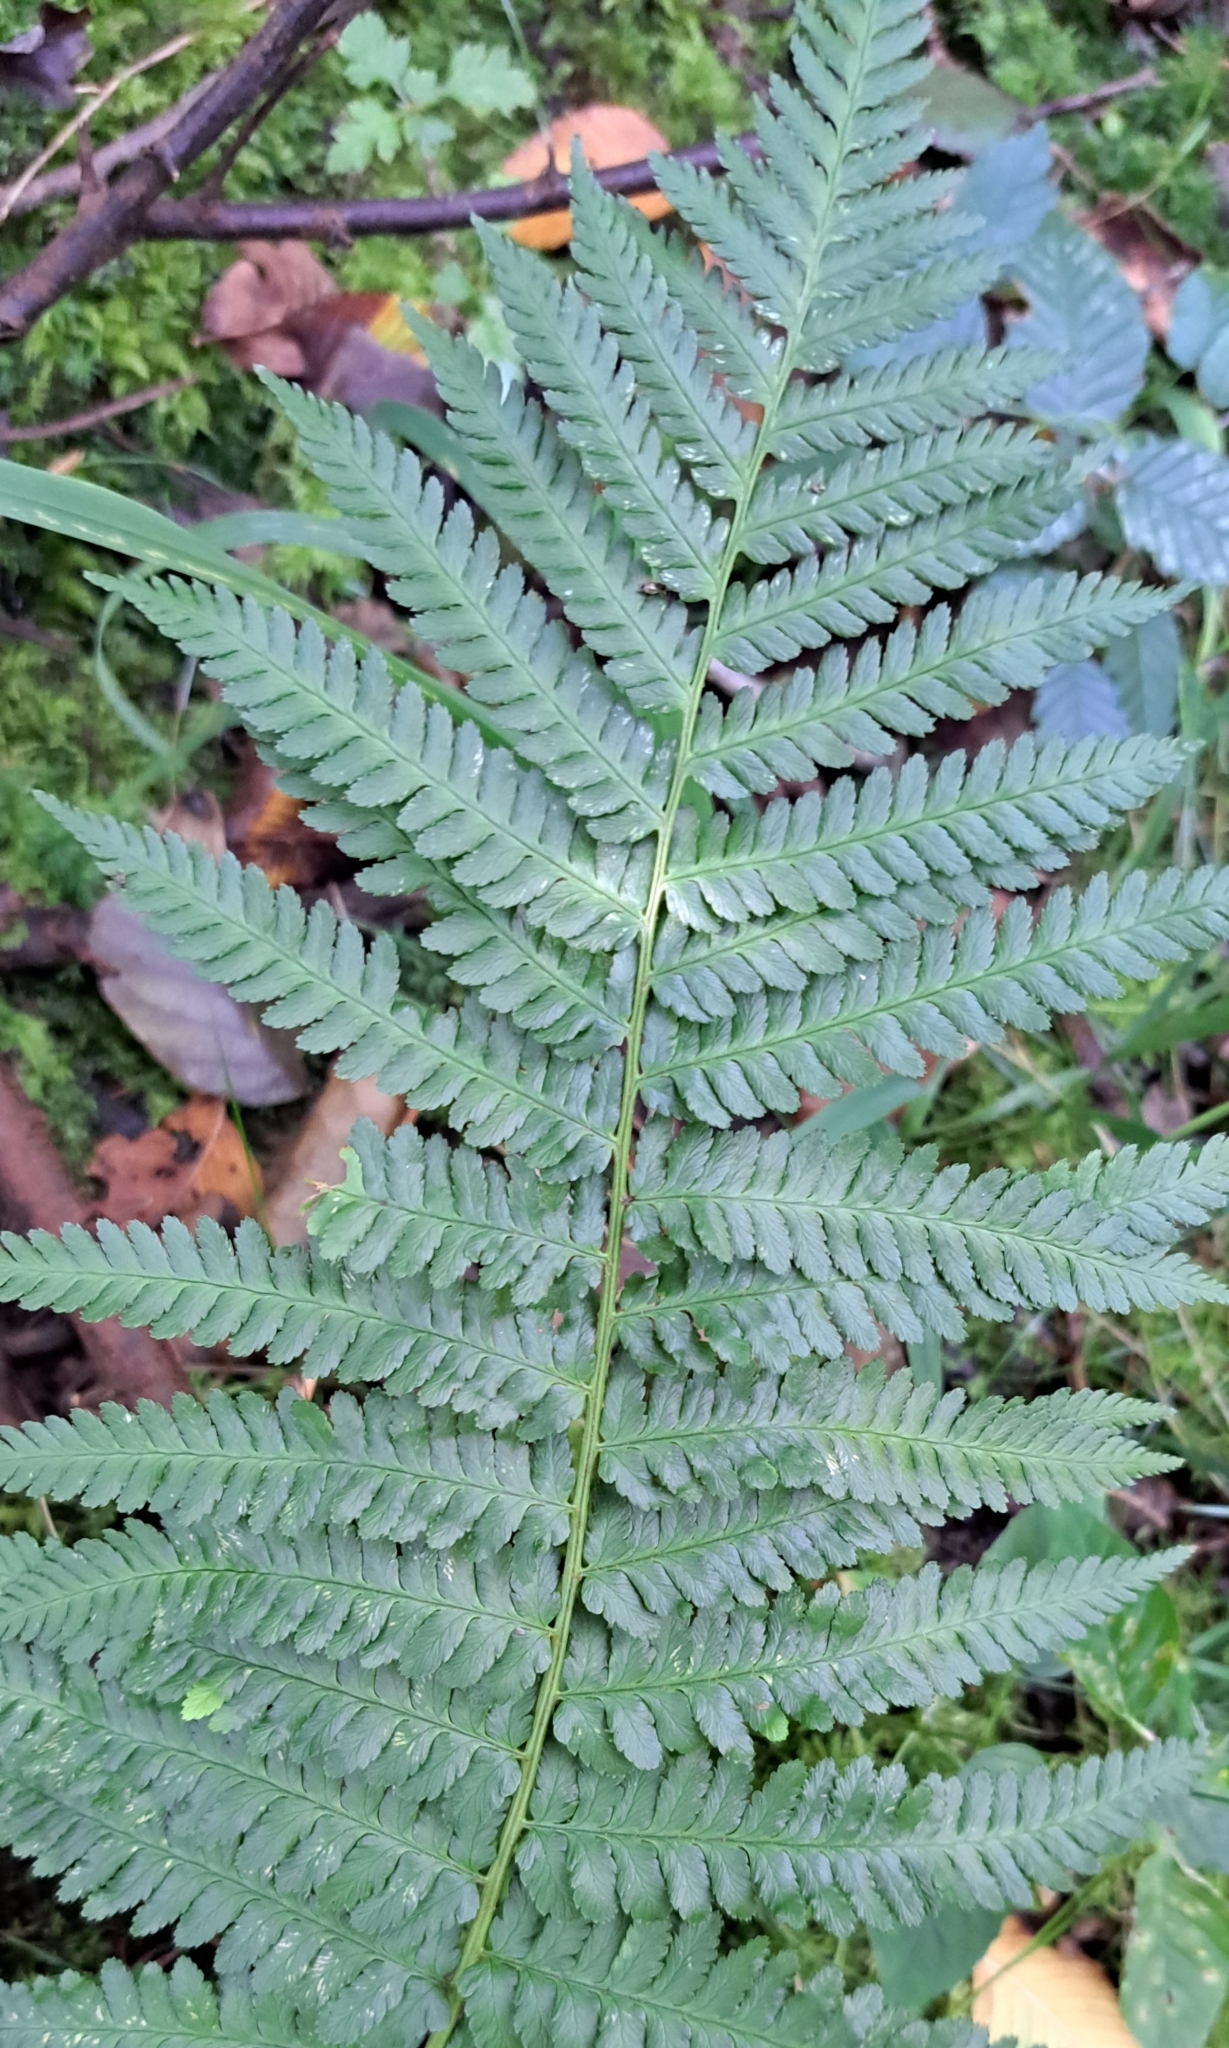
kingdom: Plantae
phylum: Tracheophyta
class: Polypodiopsida
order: Polypodiales
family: Dryopteridaceae
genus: Dryopteris
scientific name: Dryopteris filix-mas
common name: Male fern
